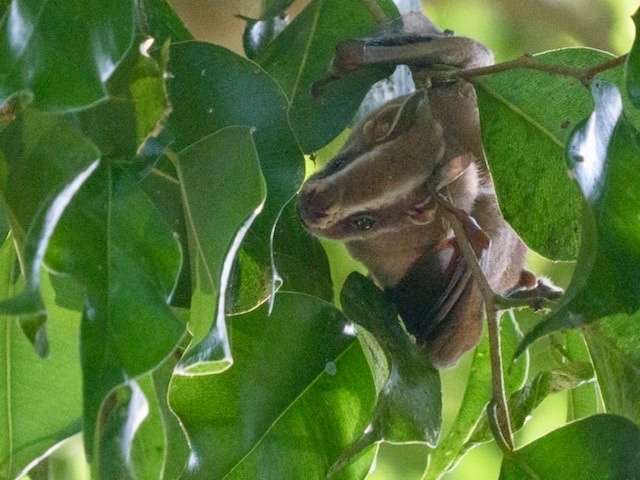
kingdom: Animalia
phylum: Chordata
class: Mammalia
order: Chiroptera
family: Phyllostomidae
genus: Uroderma
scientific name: Uroderma bilobatum
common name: Common tent-making bat
